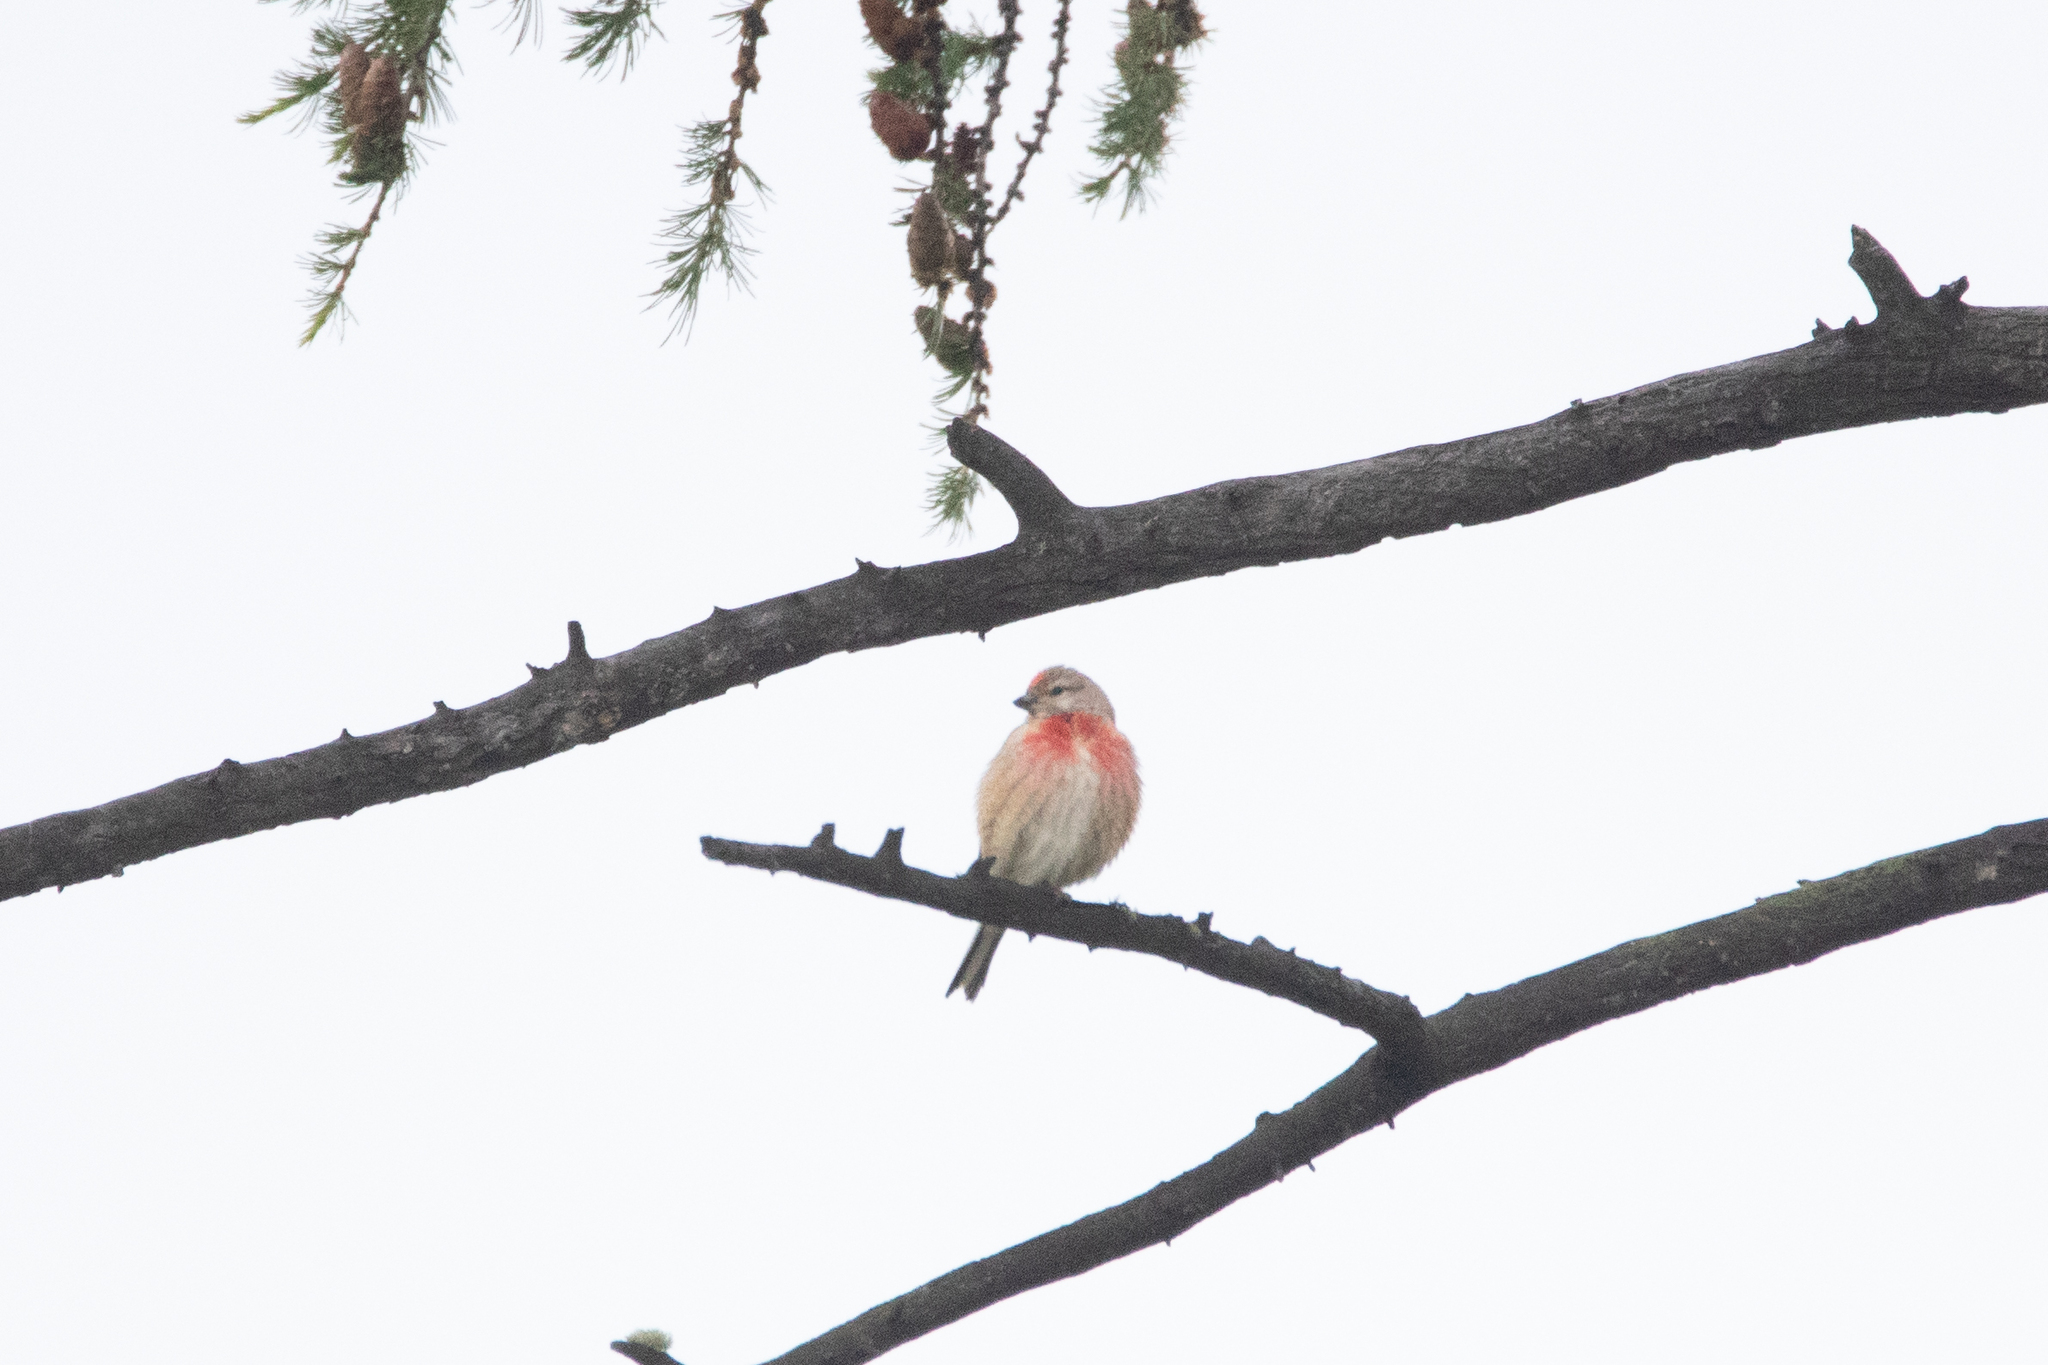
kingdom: Animalia
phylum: Chordata
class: Aves
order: Passeriformes
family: Fringillidae
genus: Linaria
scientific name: Linaria cannabina
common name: Common linnet
